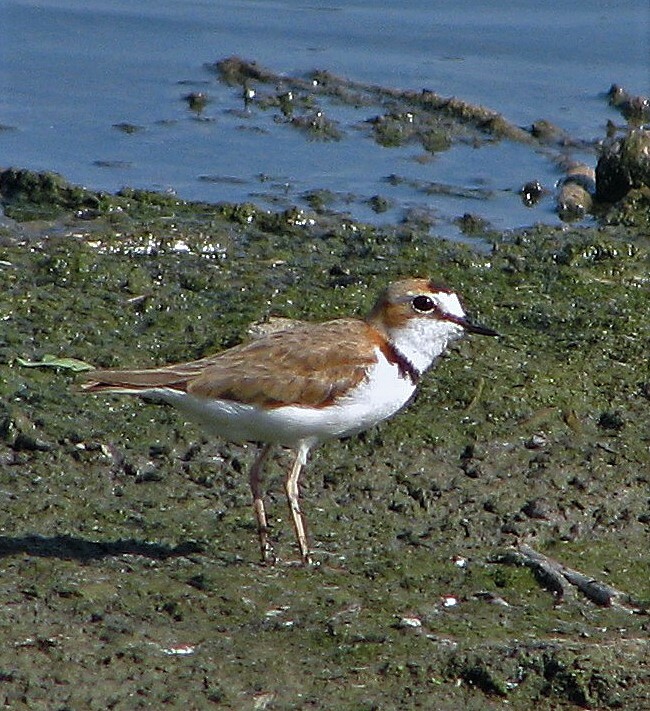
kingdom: Animalia
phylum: Chordata
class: Aves
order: Charadriiformes
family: Charadriidae
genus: Anarhynchus
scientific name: Anarhynchus
